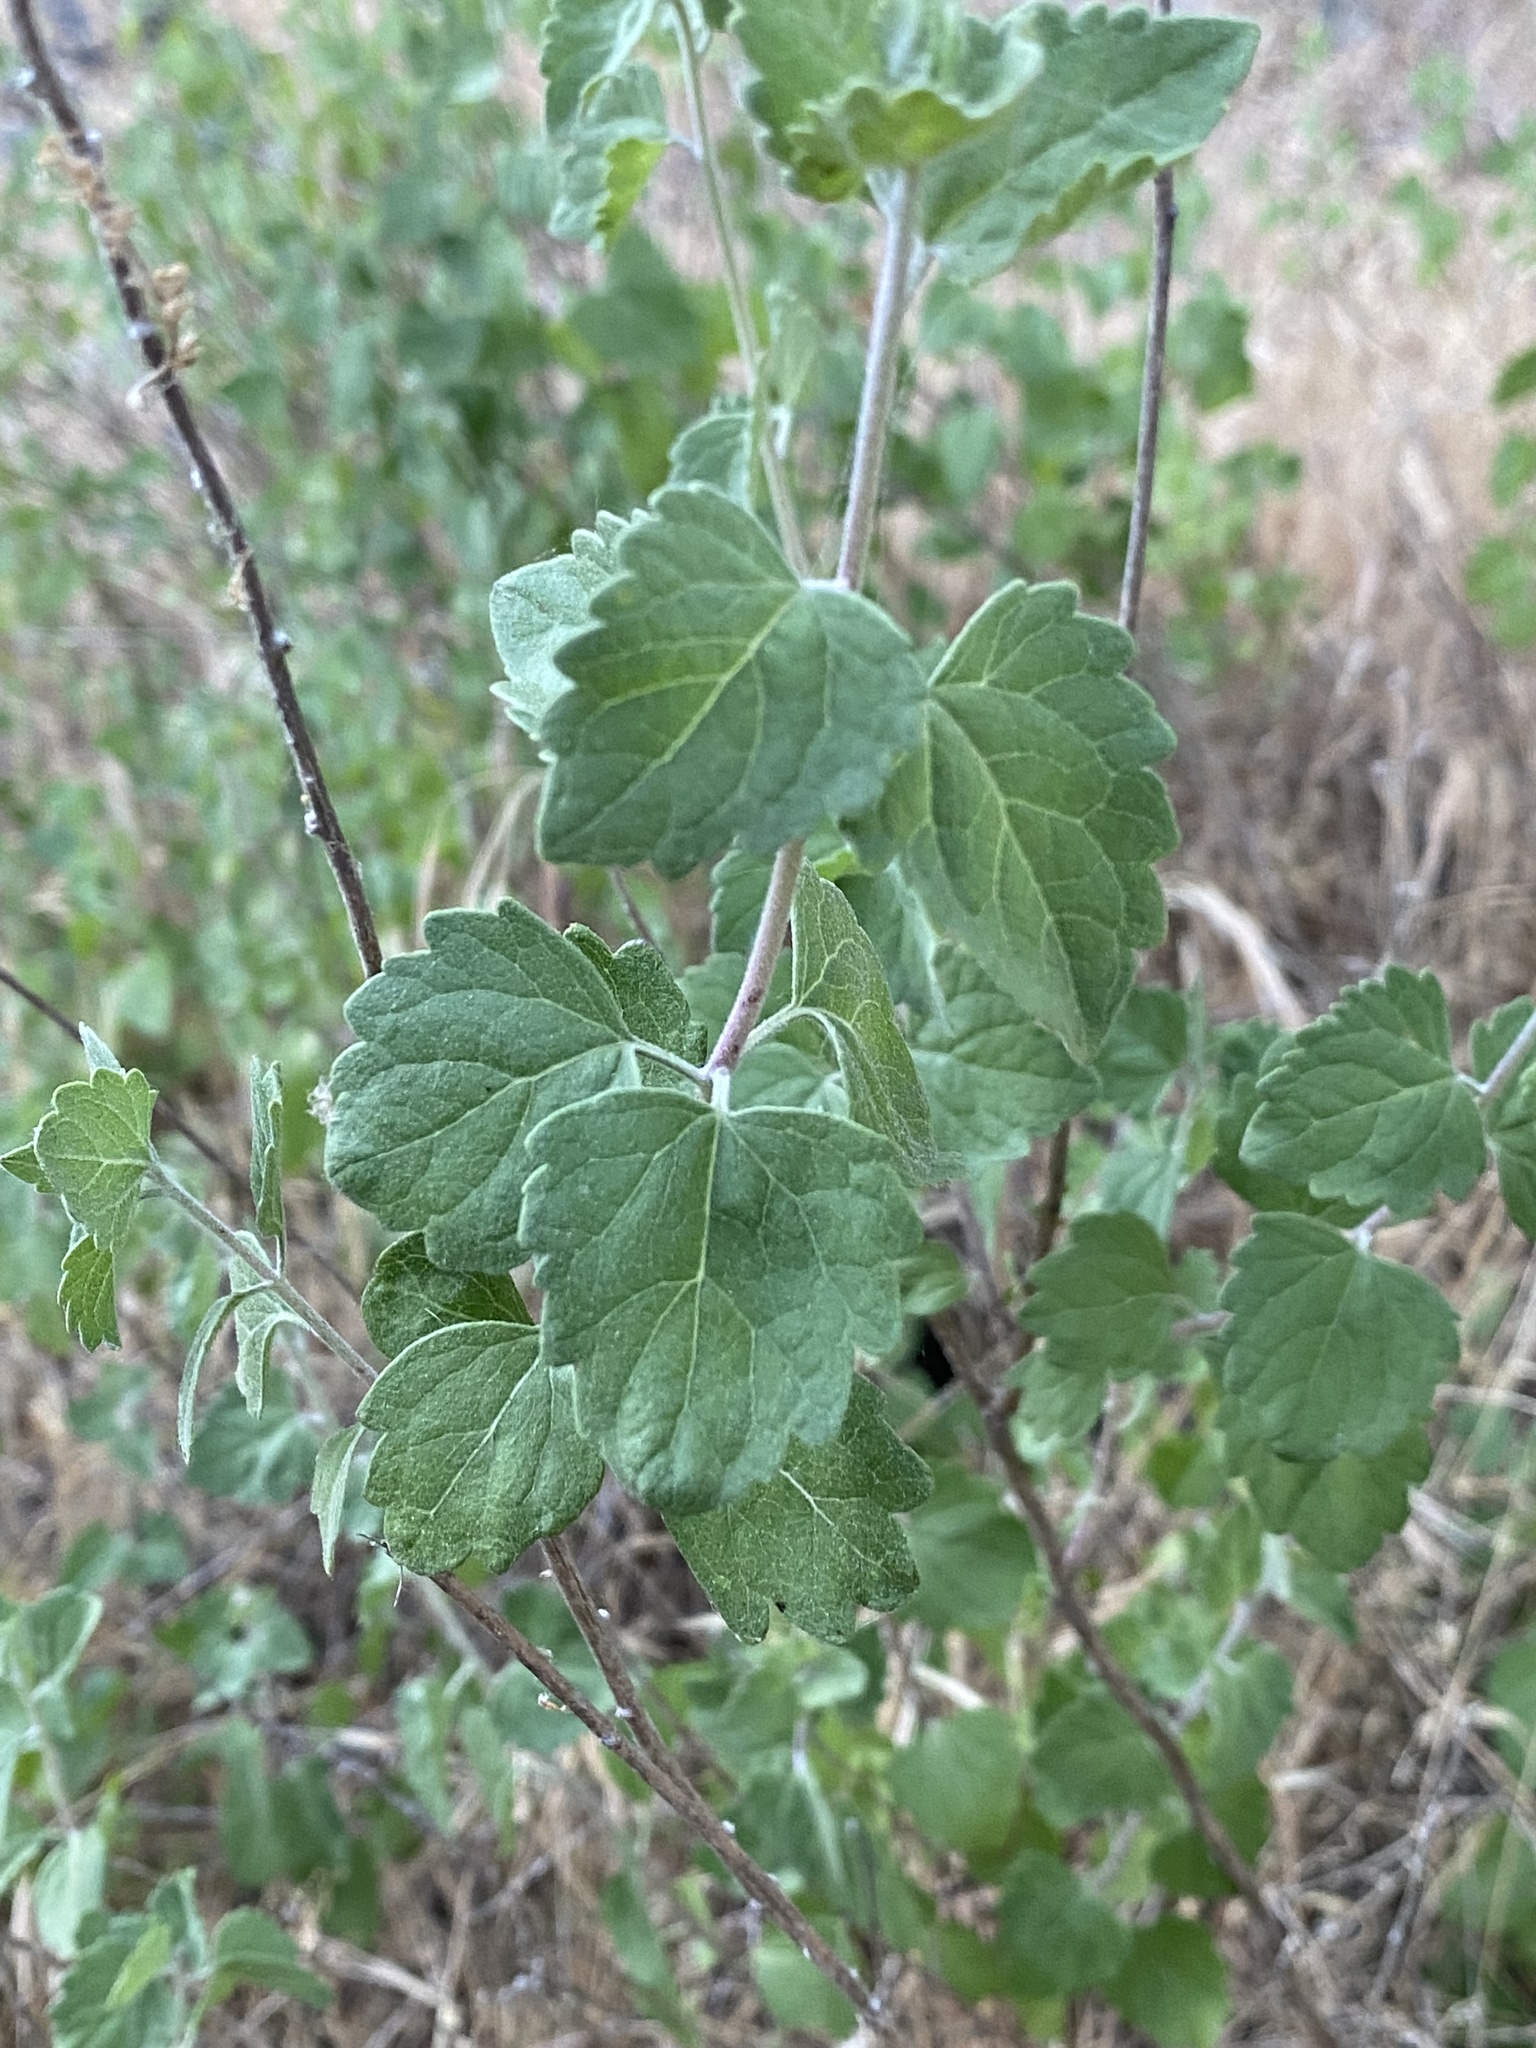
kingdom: Plantae
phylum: Tracheophyta
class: Magnoliopsida
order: Asterales
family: Asteraceae
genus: Brickellia
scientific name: Brickellia californica
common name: California brickellbush
